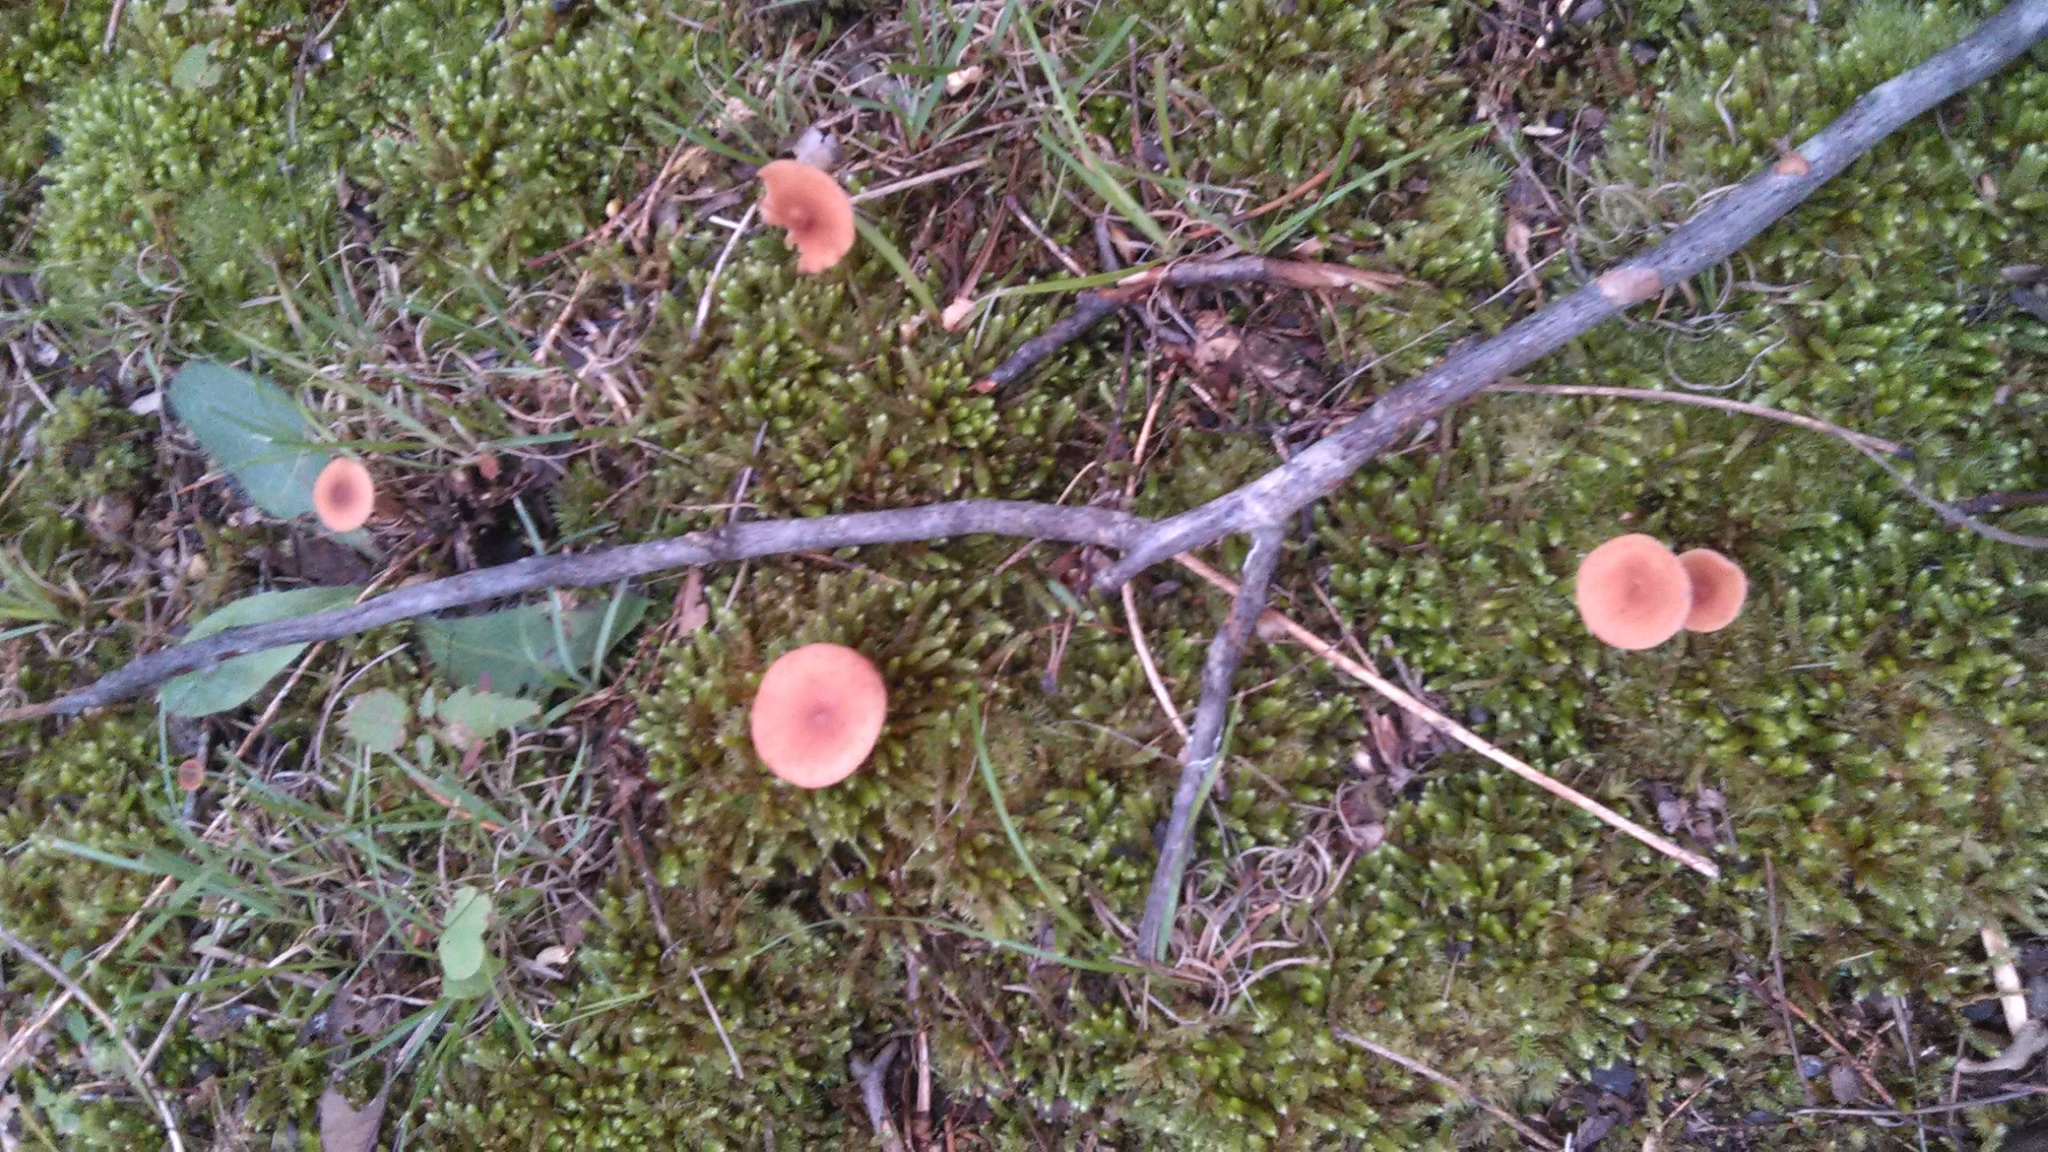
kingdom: Fungi
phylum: Basidiomycota
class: Agaricomycetes
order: Agaricales
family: Hydnangiaceae
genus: Laccaria
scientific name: Laccaria laccata
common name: Deceiver
